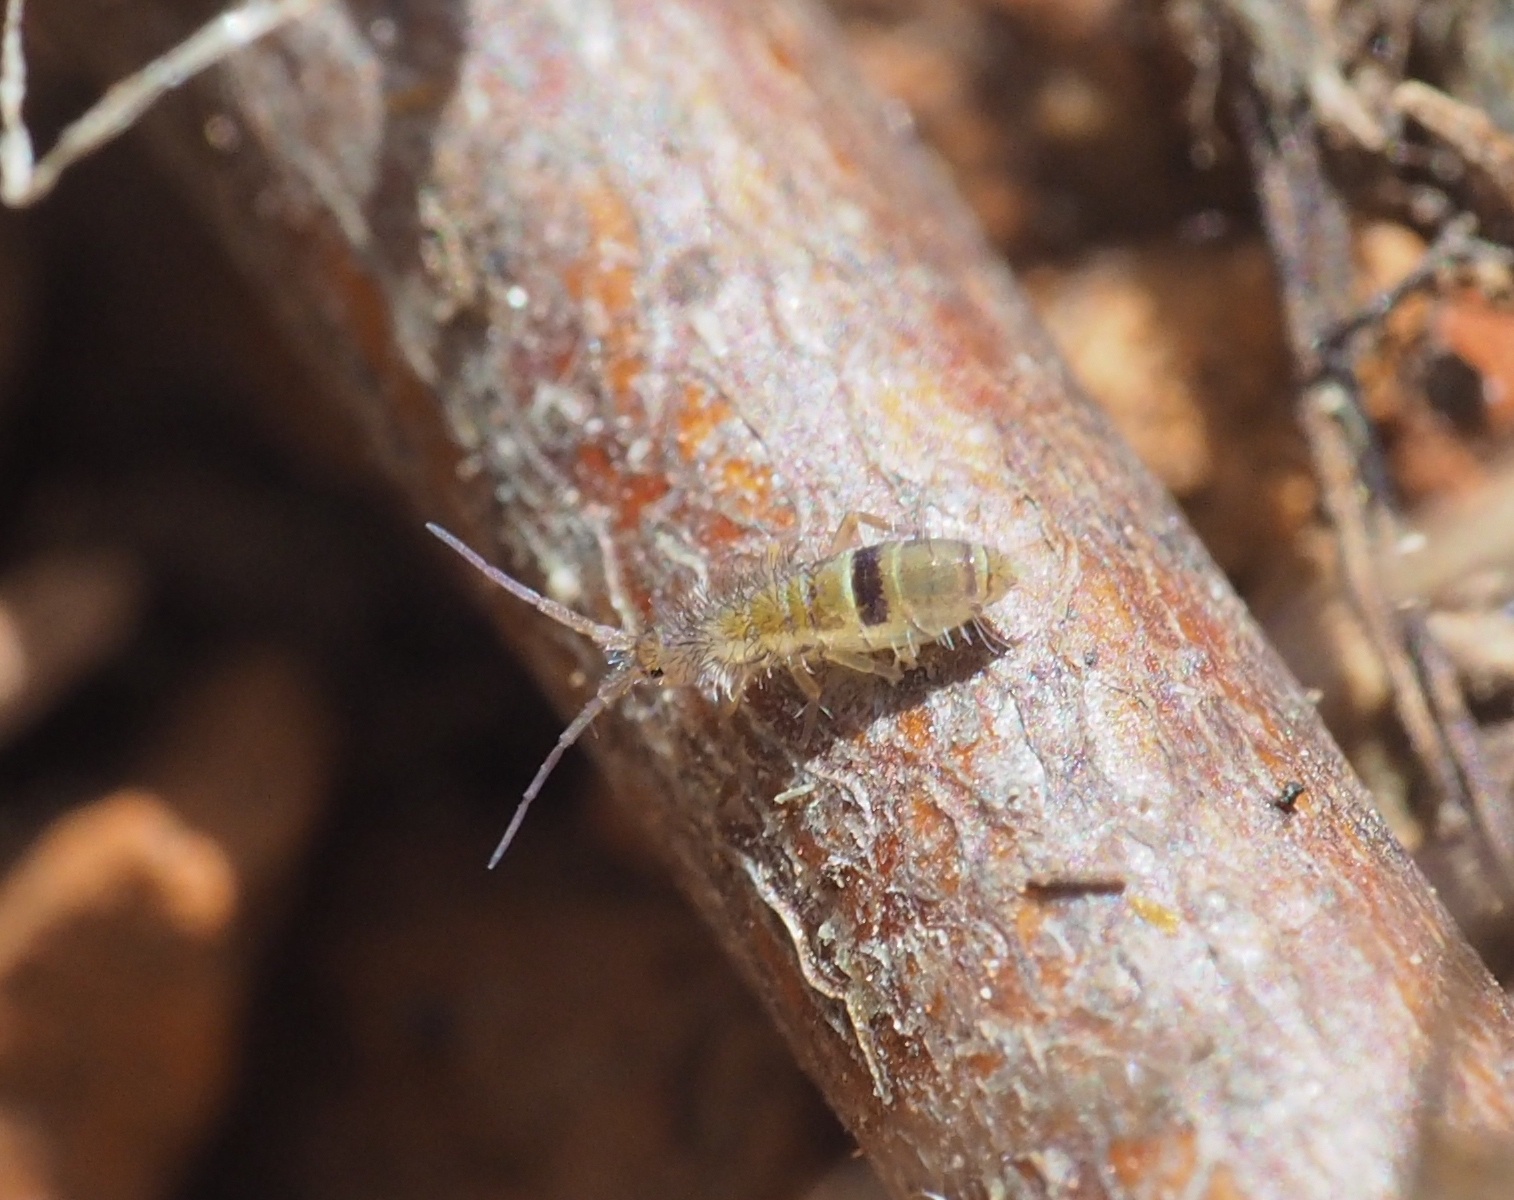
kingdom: Animalia
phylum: Arthropoda
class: Collembola
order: Entomobryomorpha
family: Orchesellidae
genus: Orchesella
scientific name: Orchesella cincta
